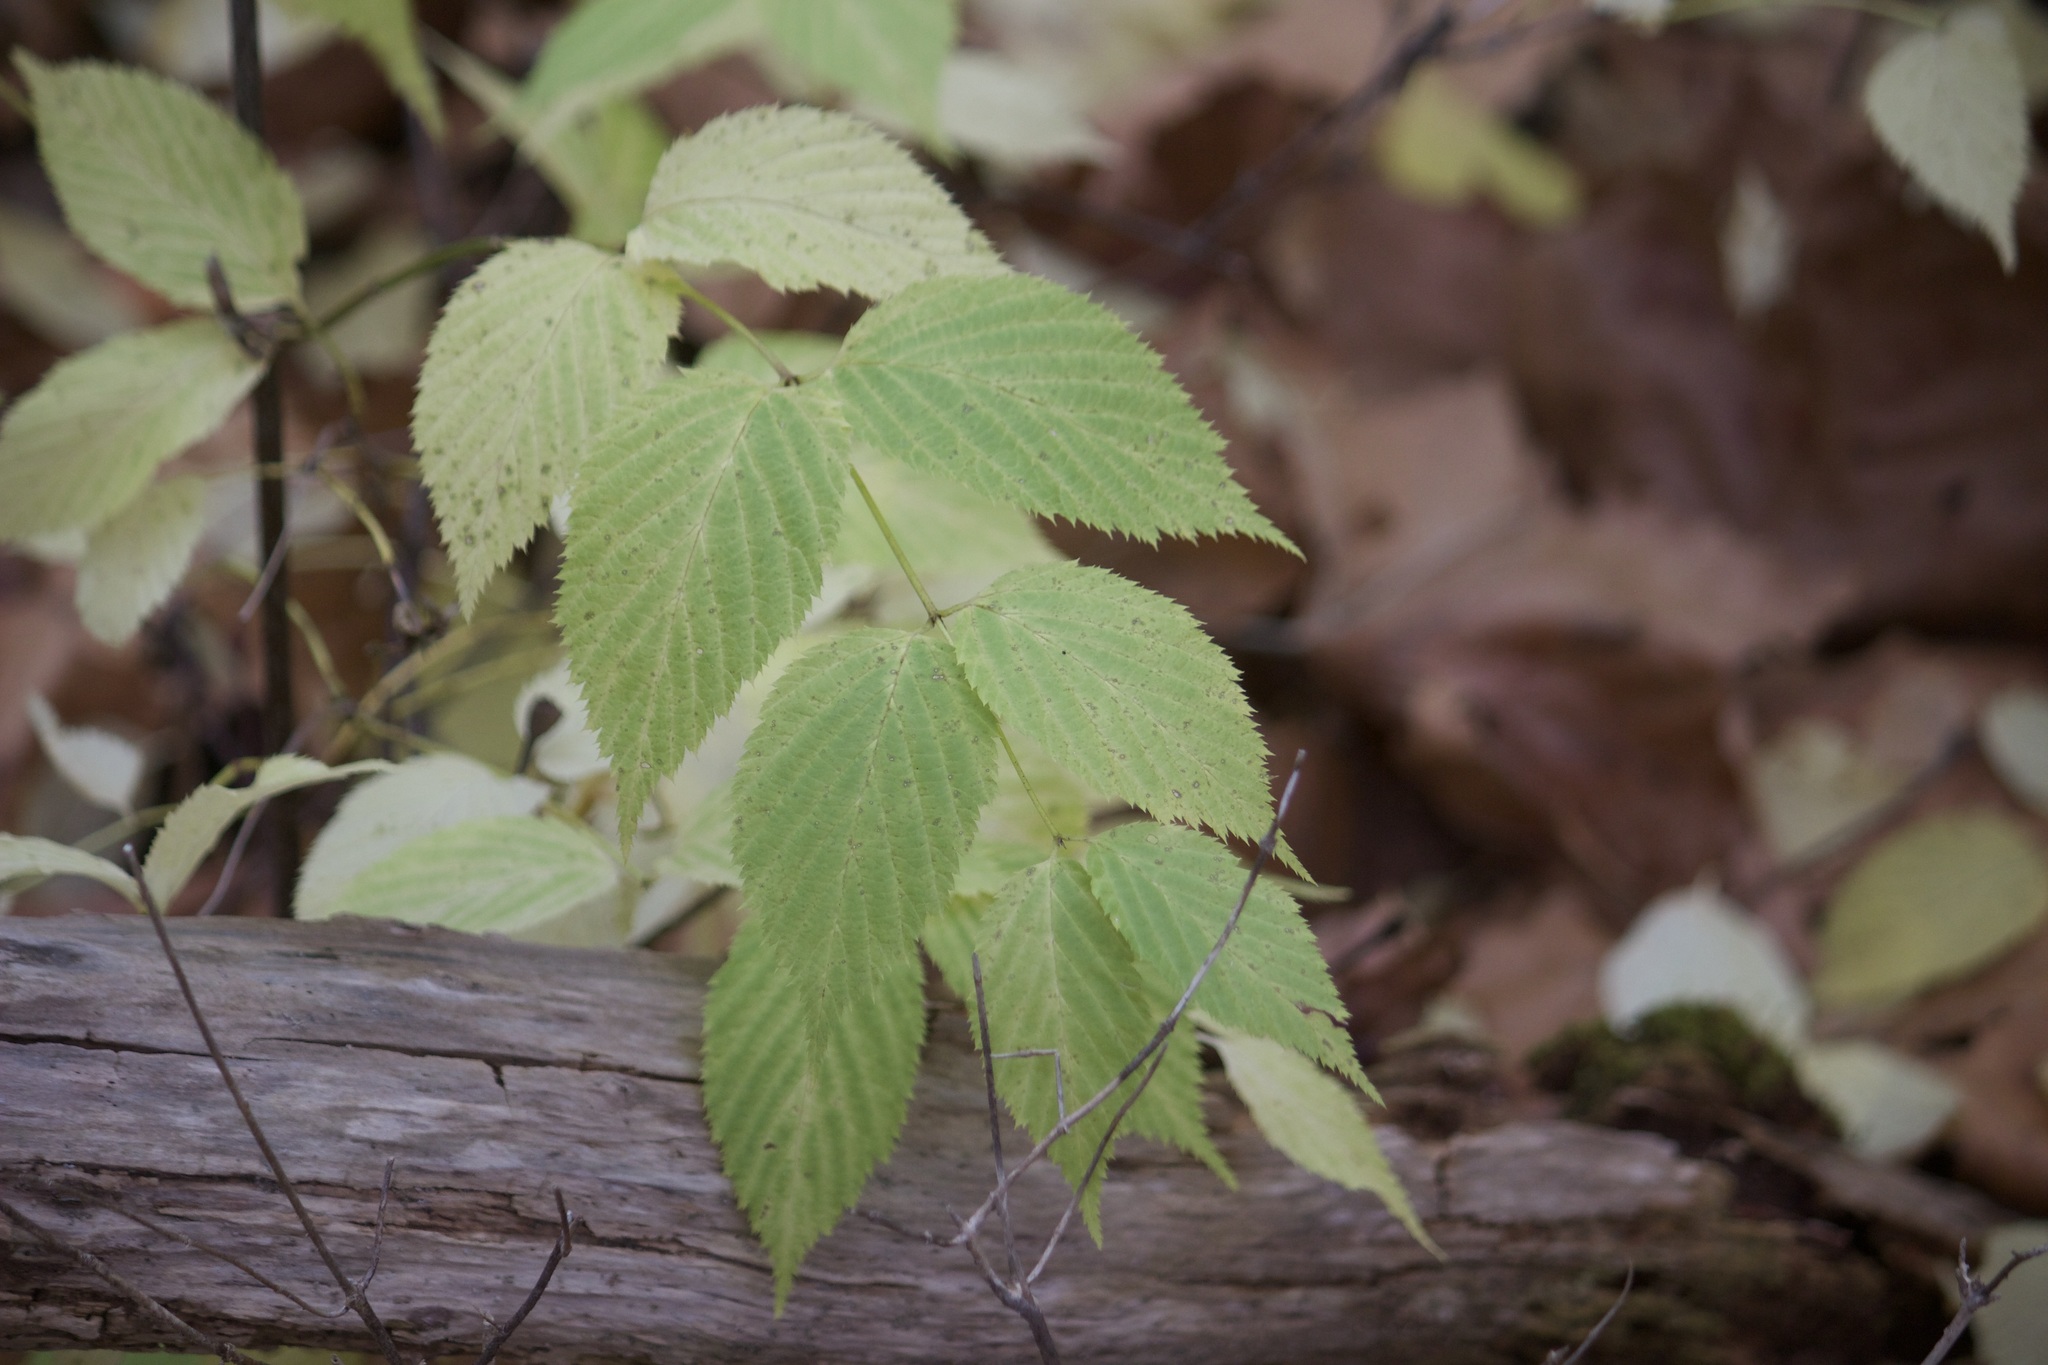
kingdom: Plantae
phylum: Tracheophyta
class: Magnoliopsida
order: Rosales
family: Rosaceae
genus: Rhodotypos
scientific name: Rhodotypos scandens
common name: Jetbead
